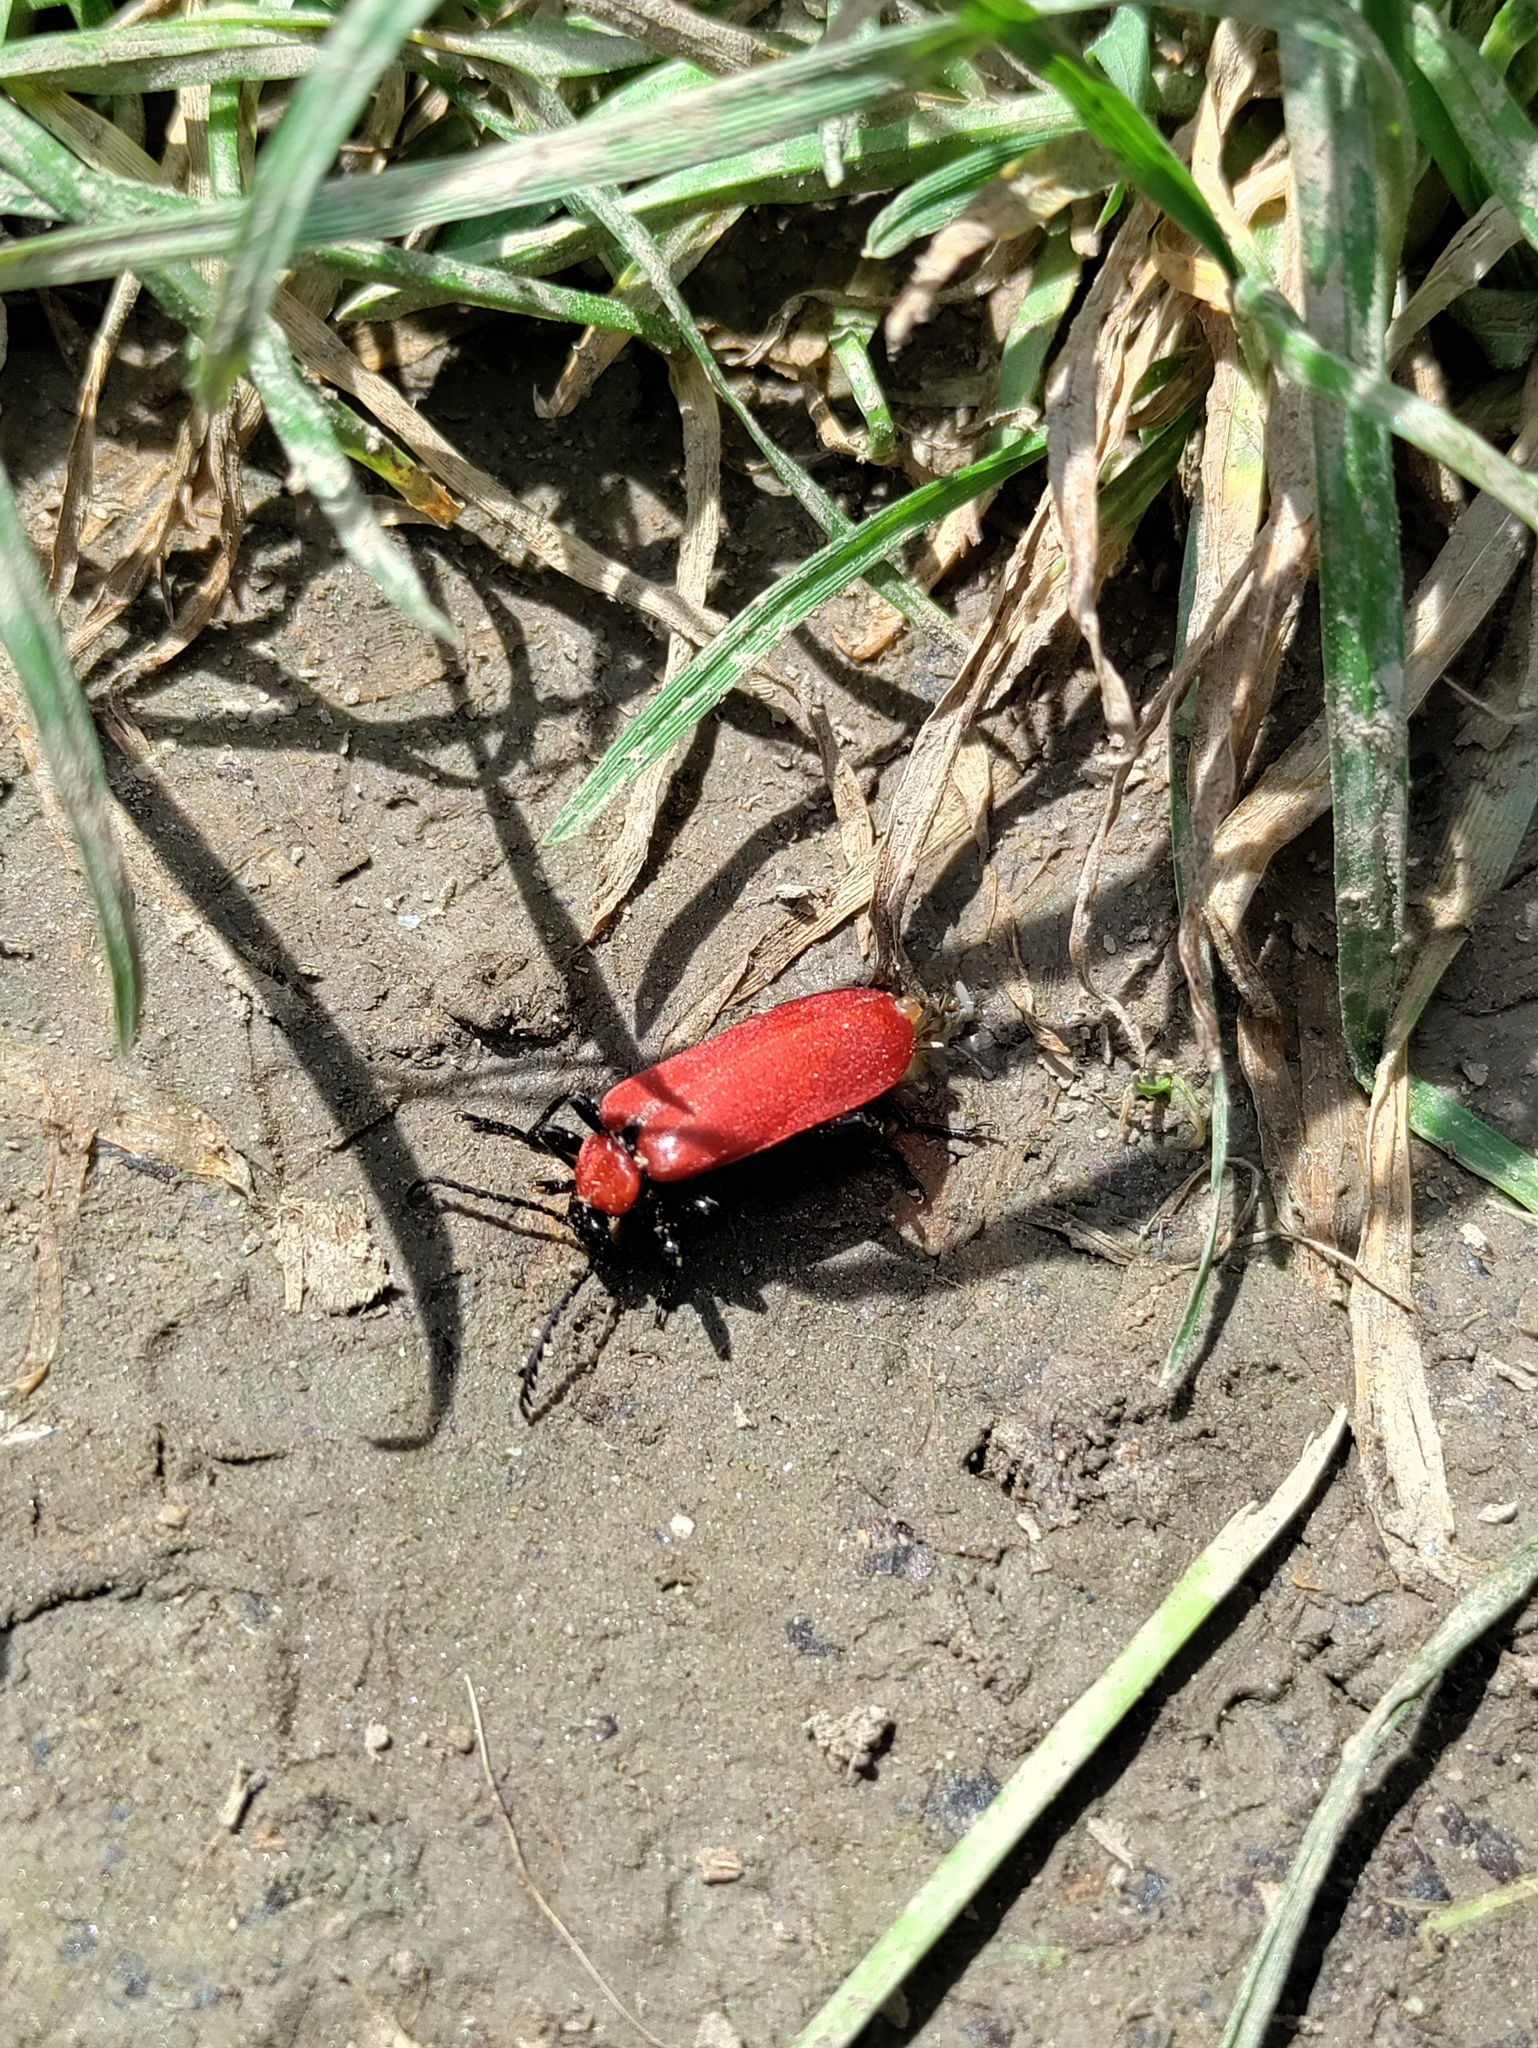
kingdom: Animalia
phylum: Arthropoda
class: Insecta
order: Coleoptera
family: Pyrochroidae
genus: Pyrochroa
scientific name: Pyrochroa coccinea
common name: Black-headed cardinal beetle
